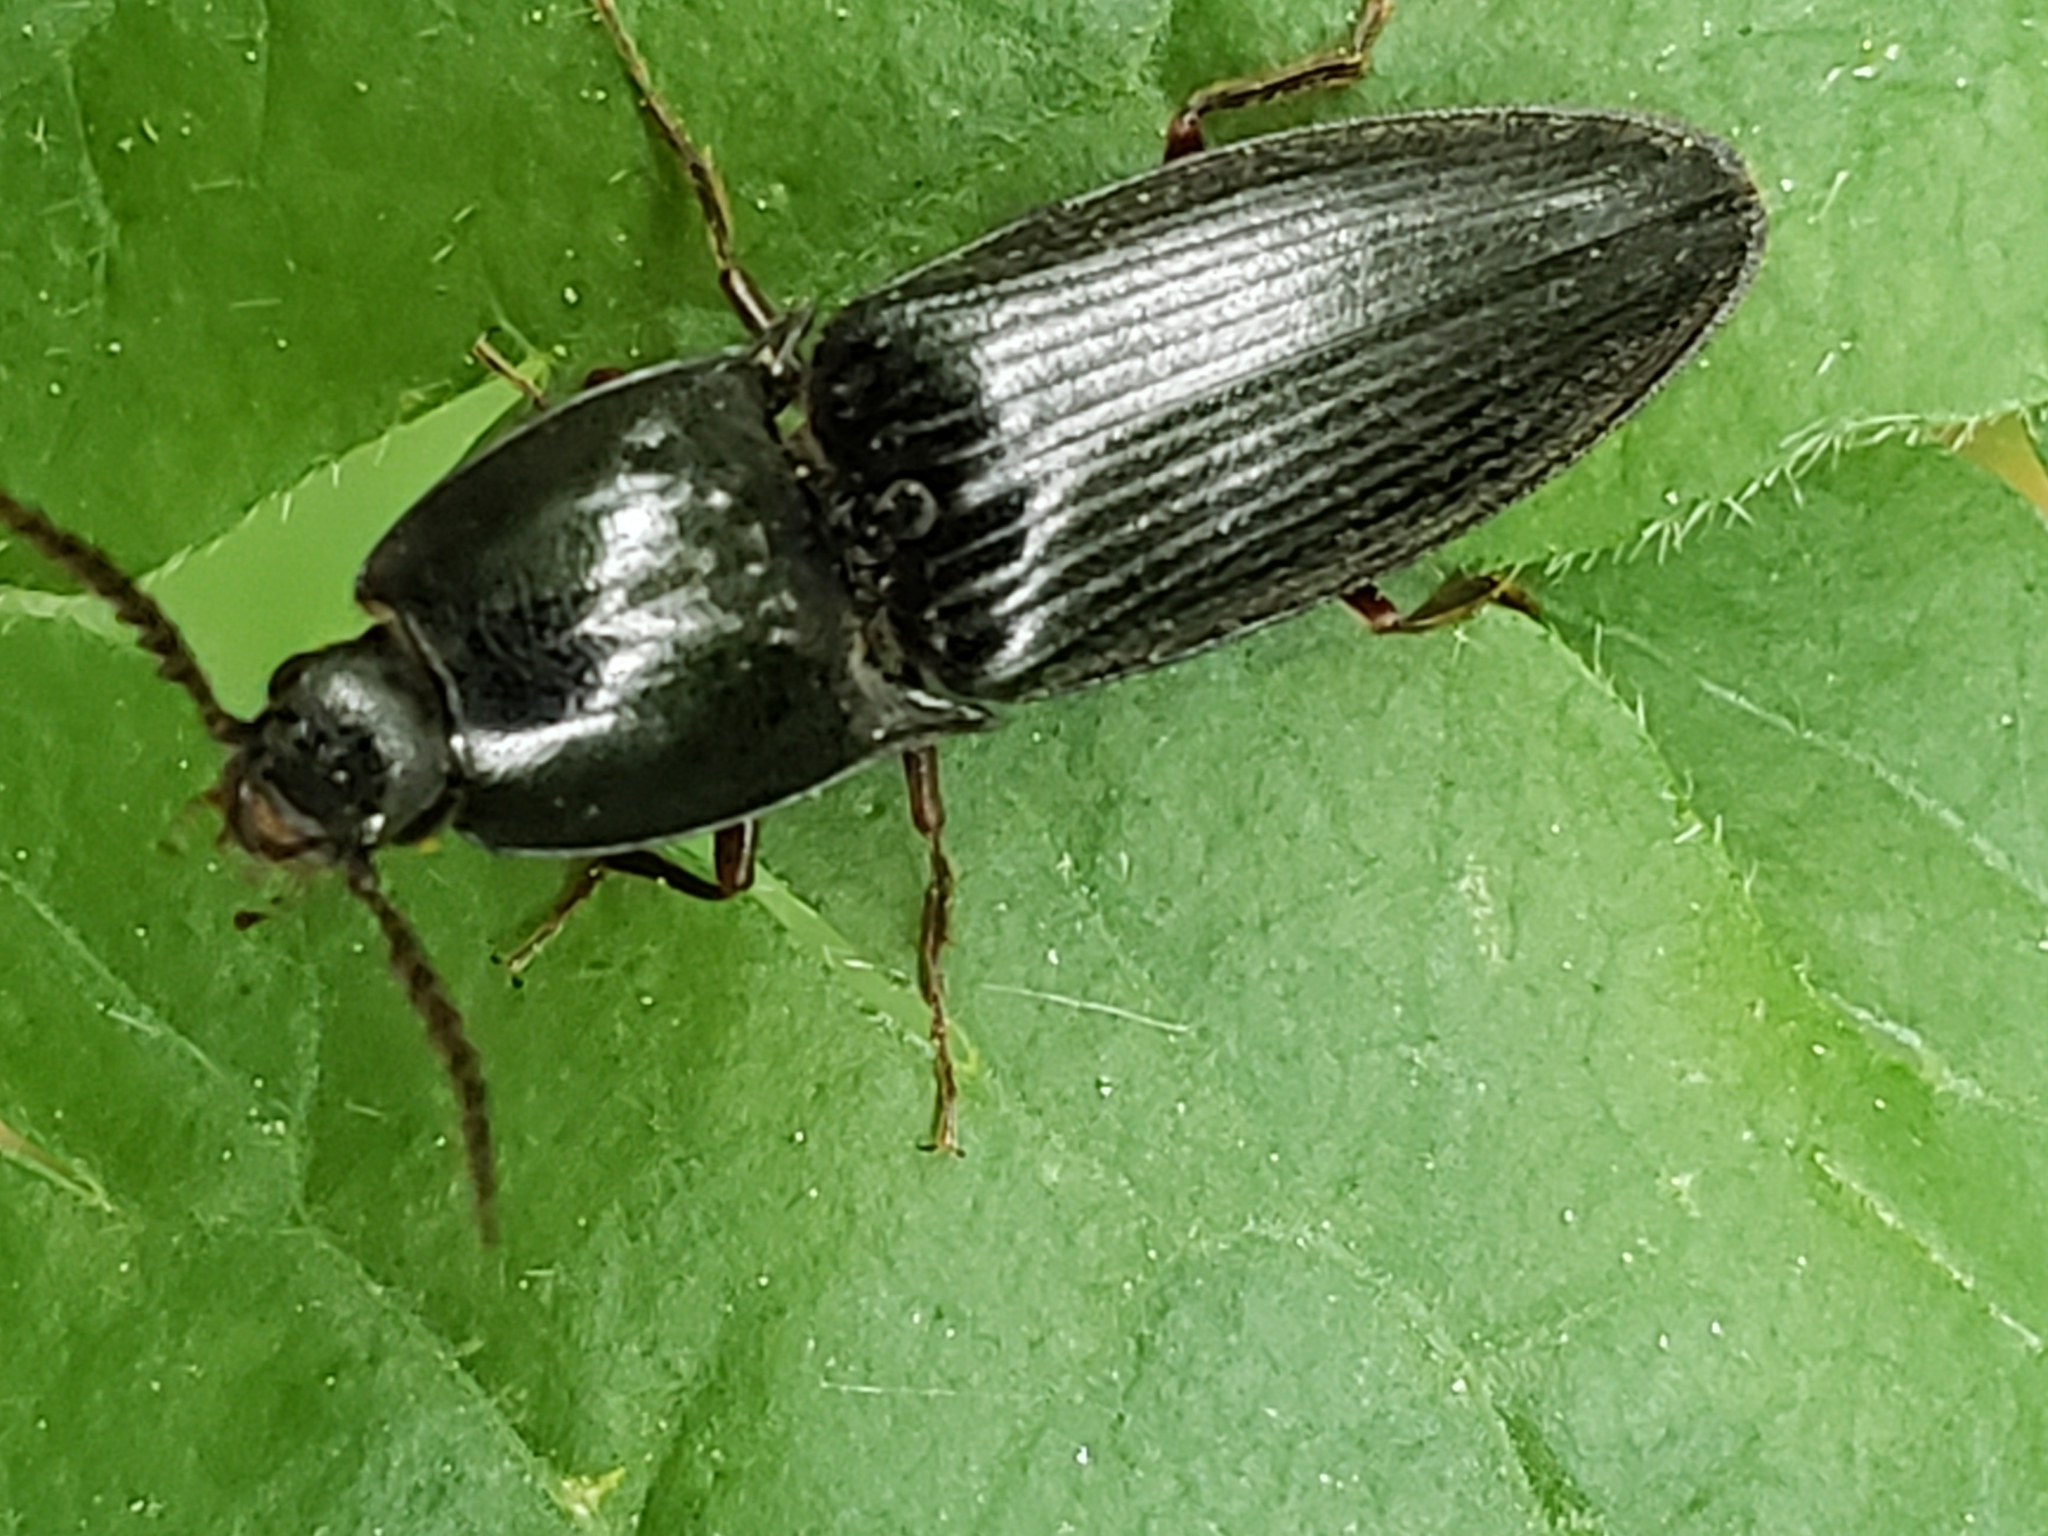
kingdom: Animalia
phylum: Arthropoda
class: Insecta
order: Coleoptera
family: Elateridae
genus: Neopristilophus
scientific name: Neopristilophus
